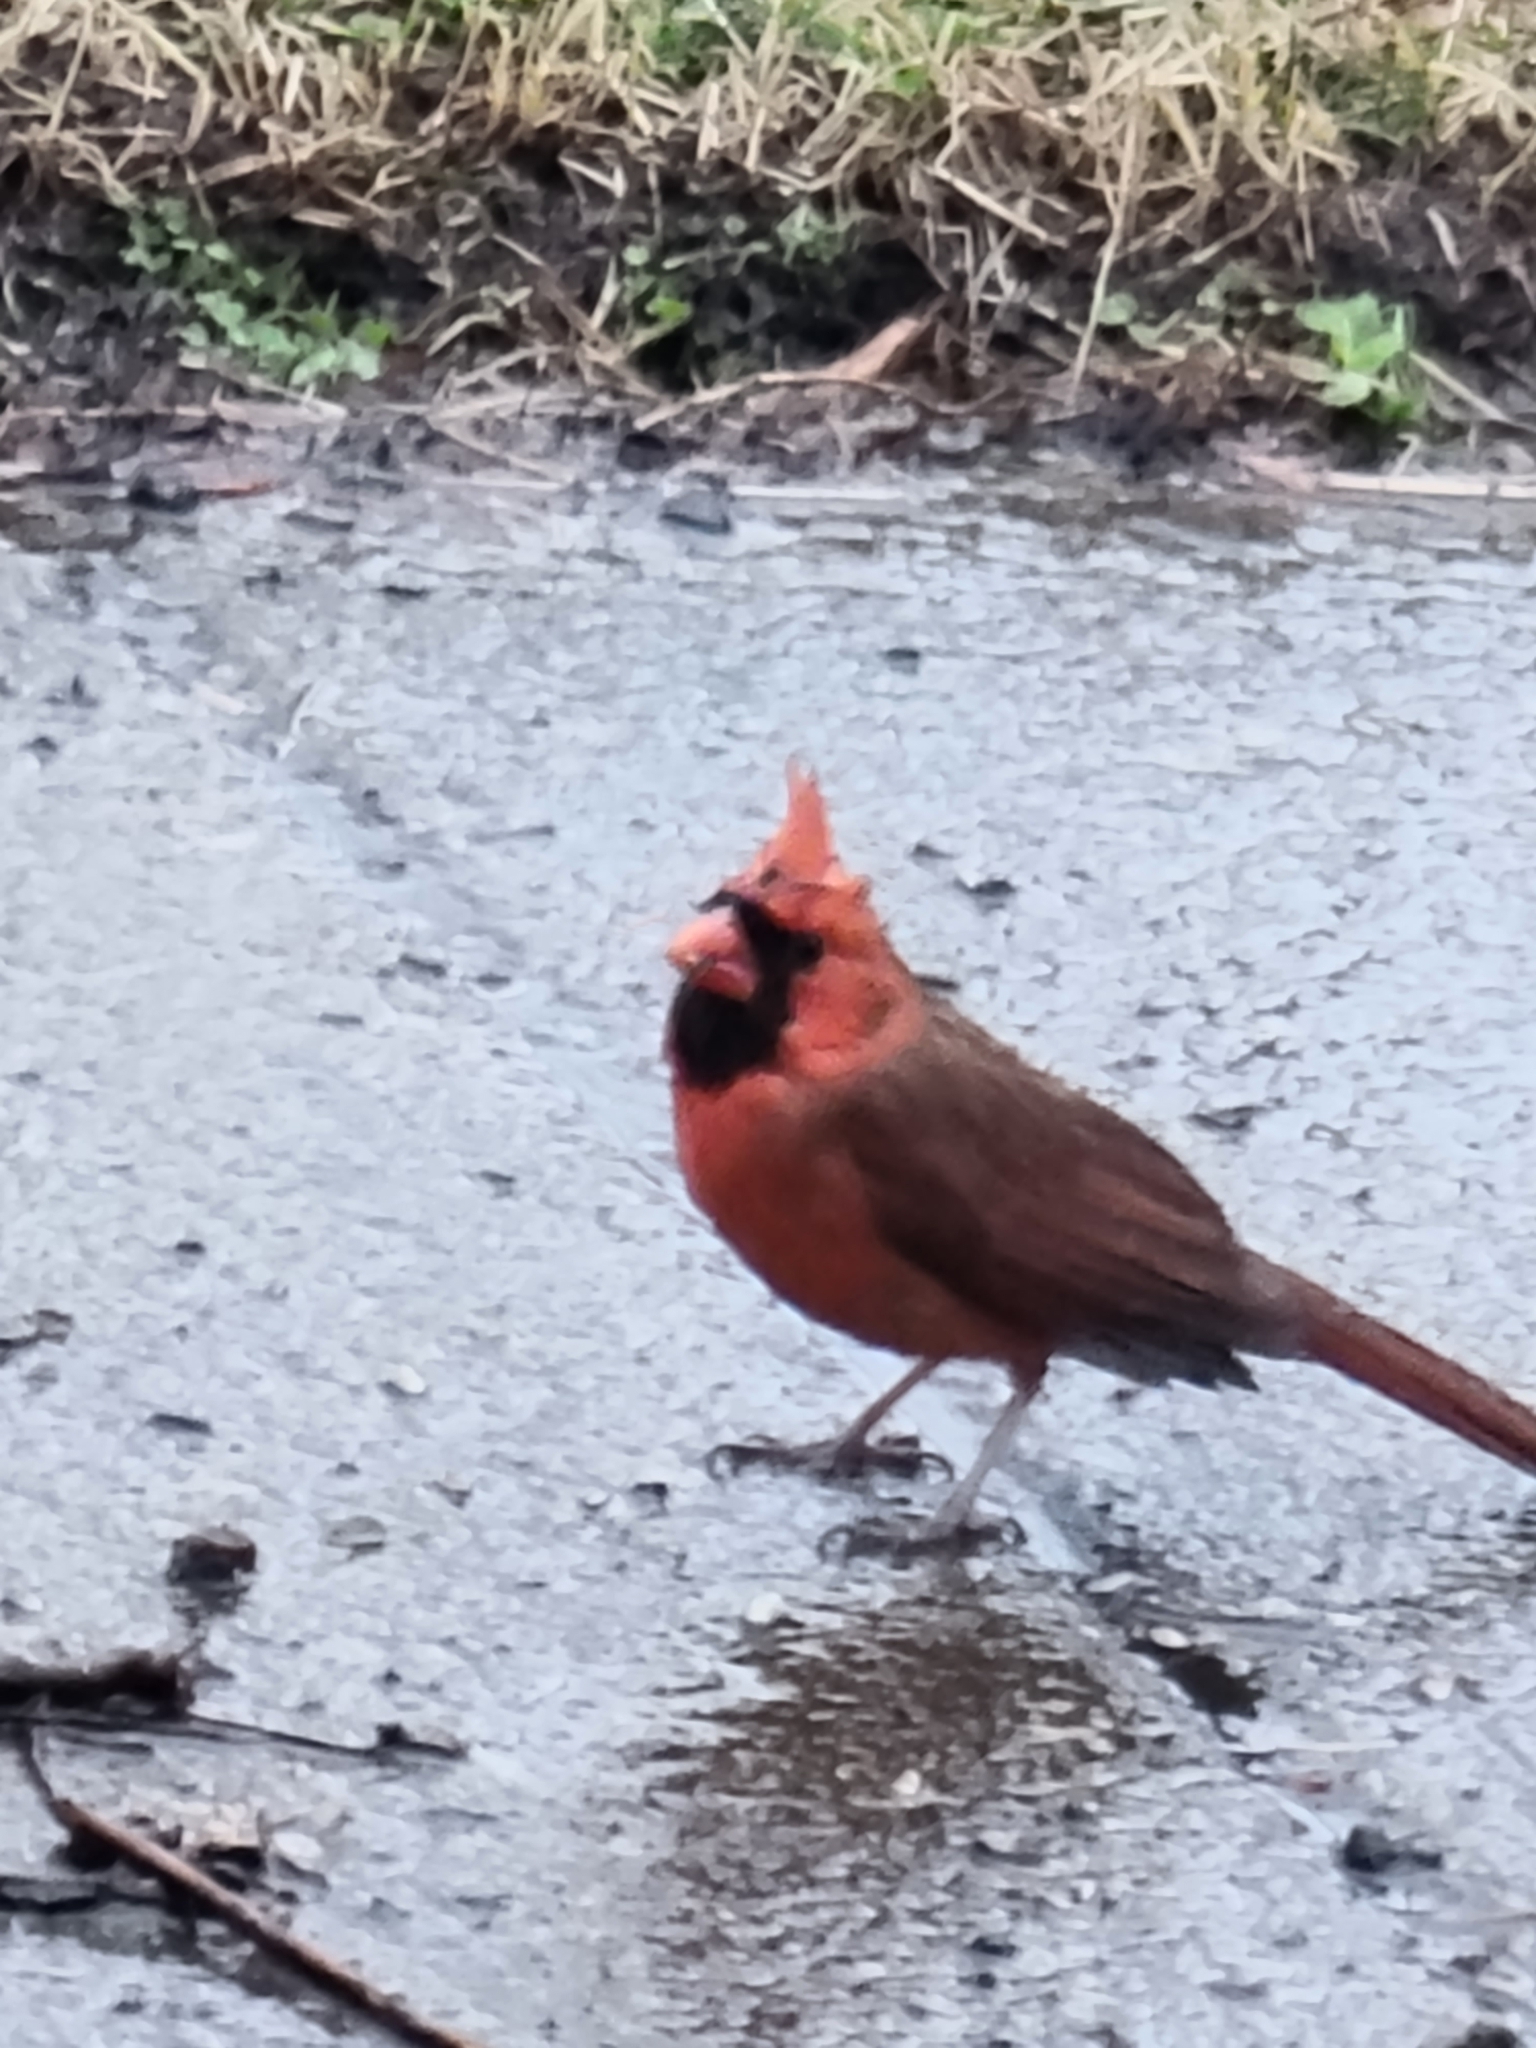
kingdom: Animalia
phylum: Chordata
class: Aves
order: Passeriformes
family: Cardinalidae
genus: Cardinalis
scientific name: Cardinalis cardinalis
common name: Northern cardinal
